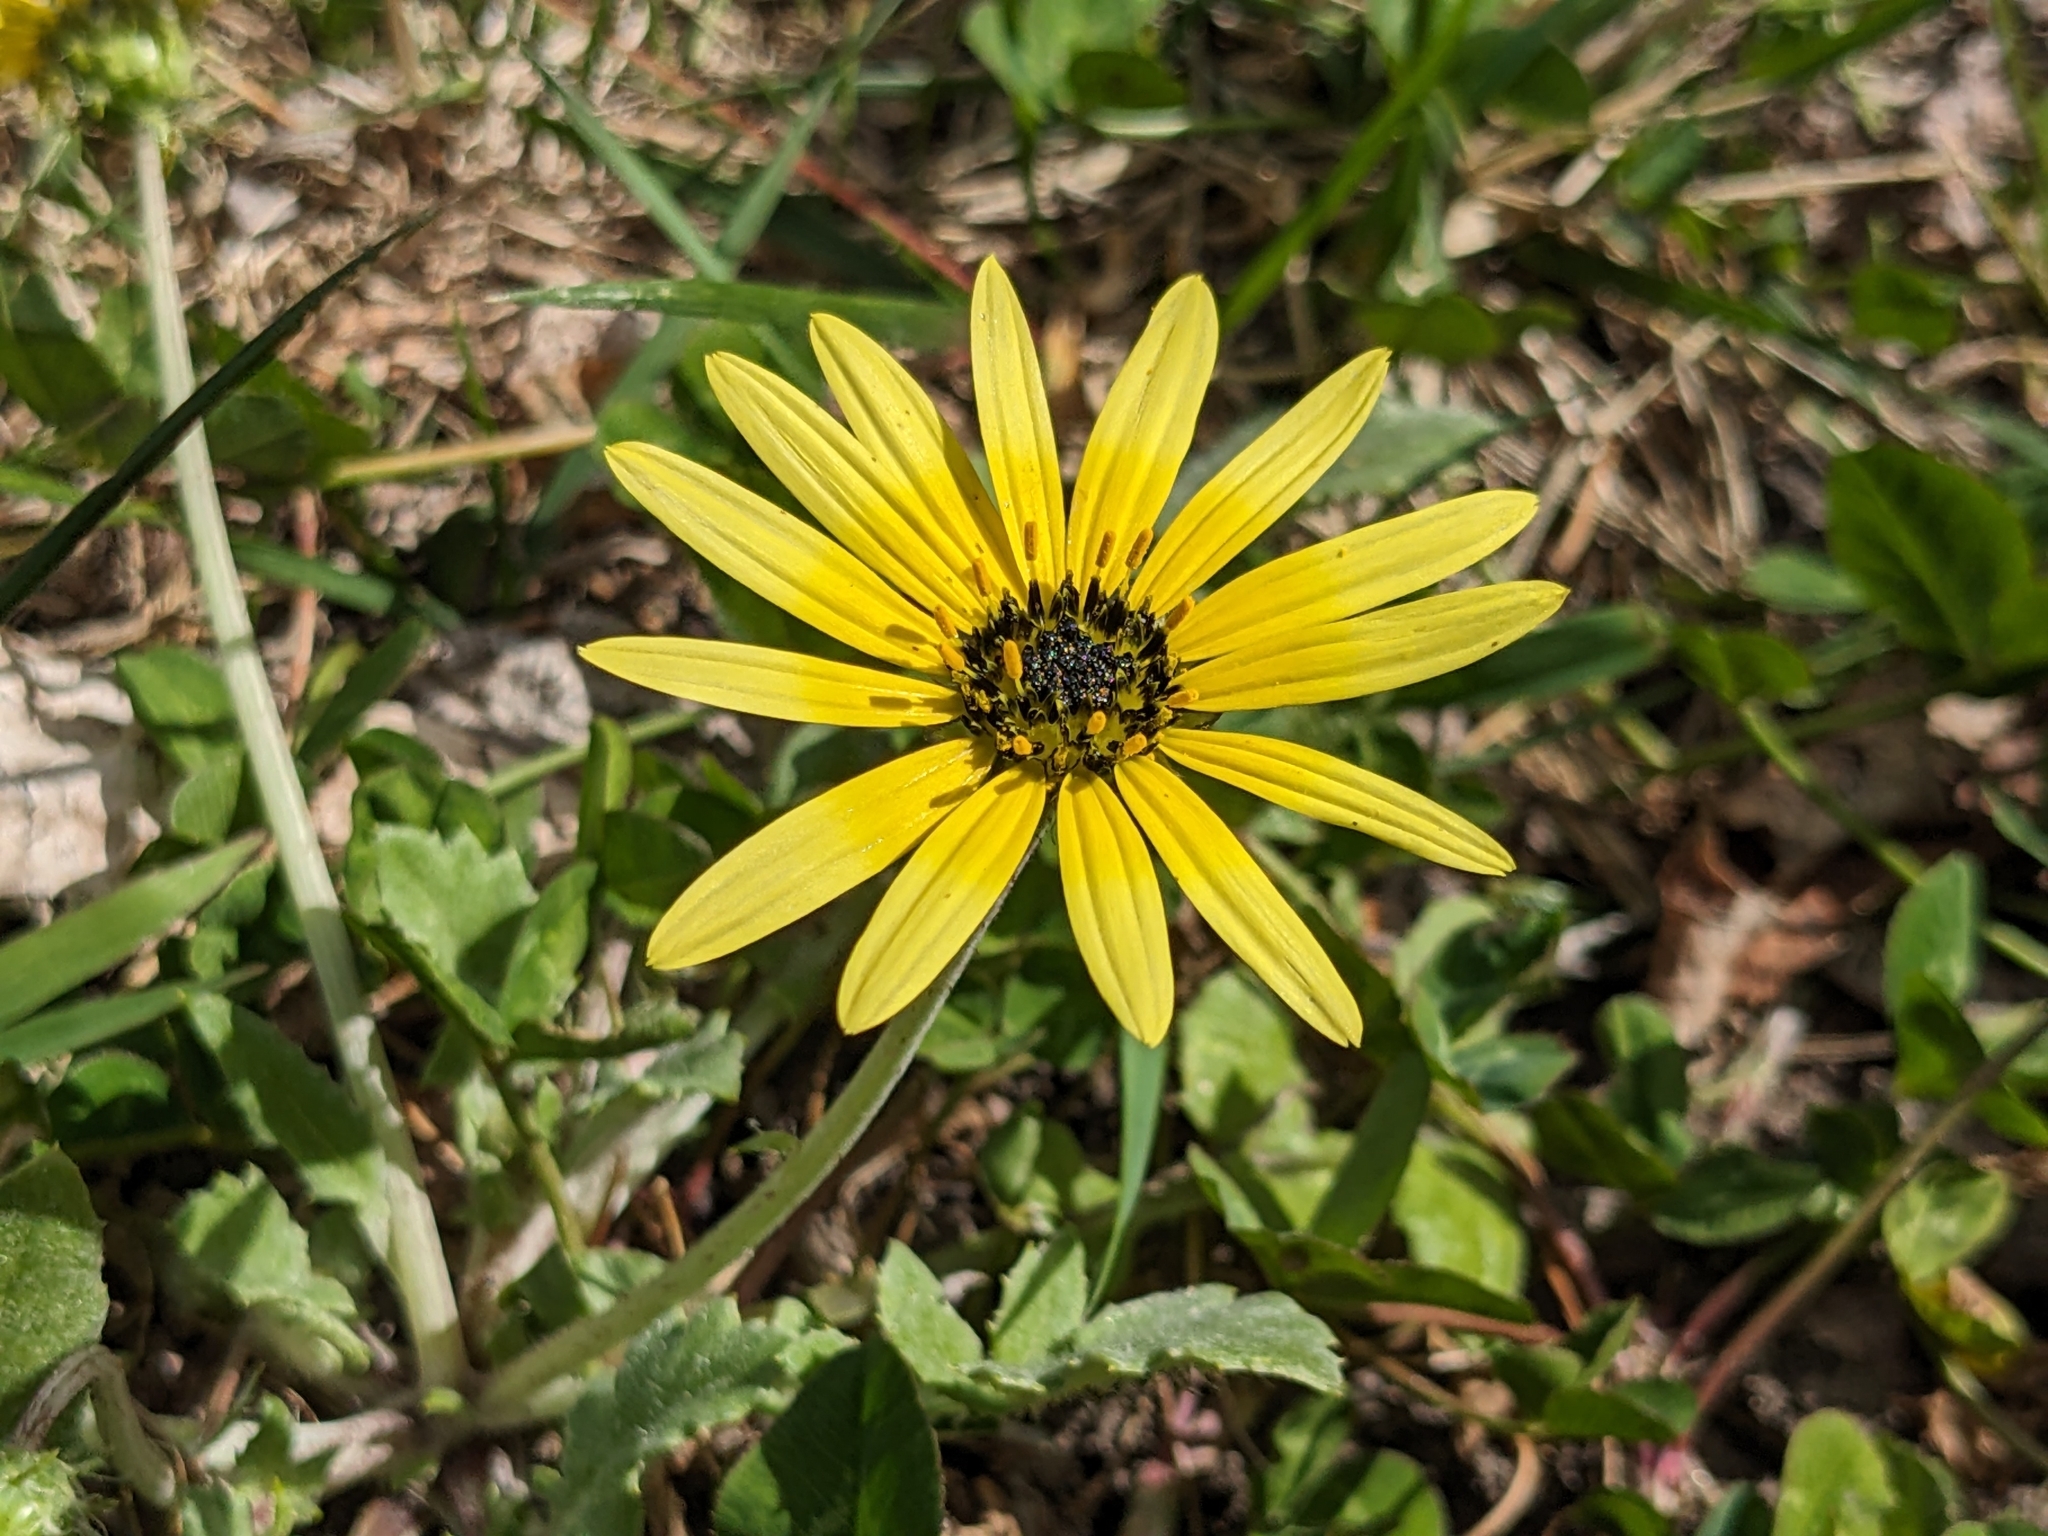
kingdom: Plantae
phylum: Tracheophyta
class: Magnoliopsida
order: Asterales
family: Asteraceae
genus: Arctotheca
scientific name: Arctotheca calendula
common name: Capeweed
